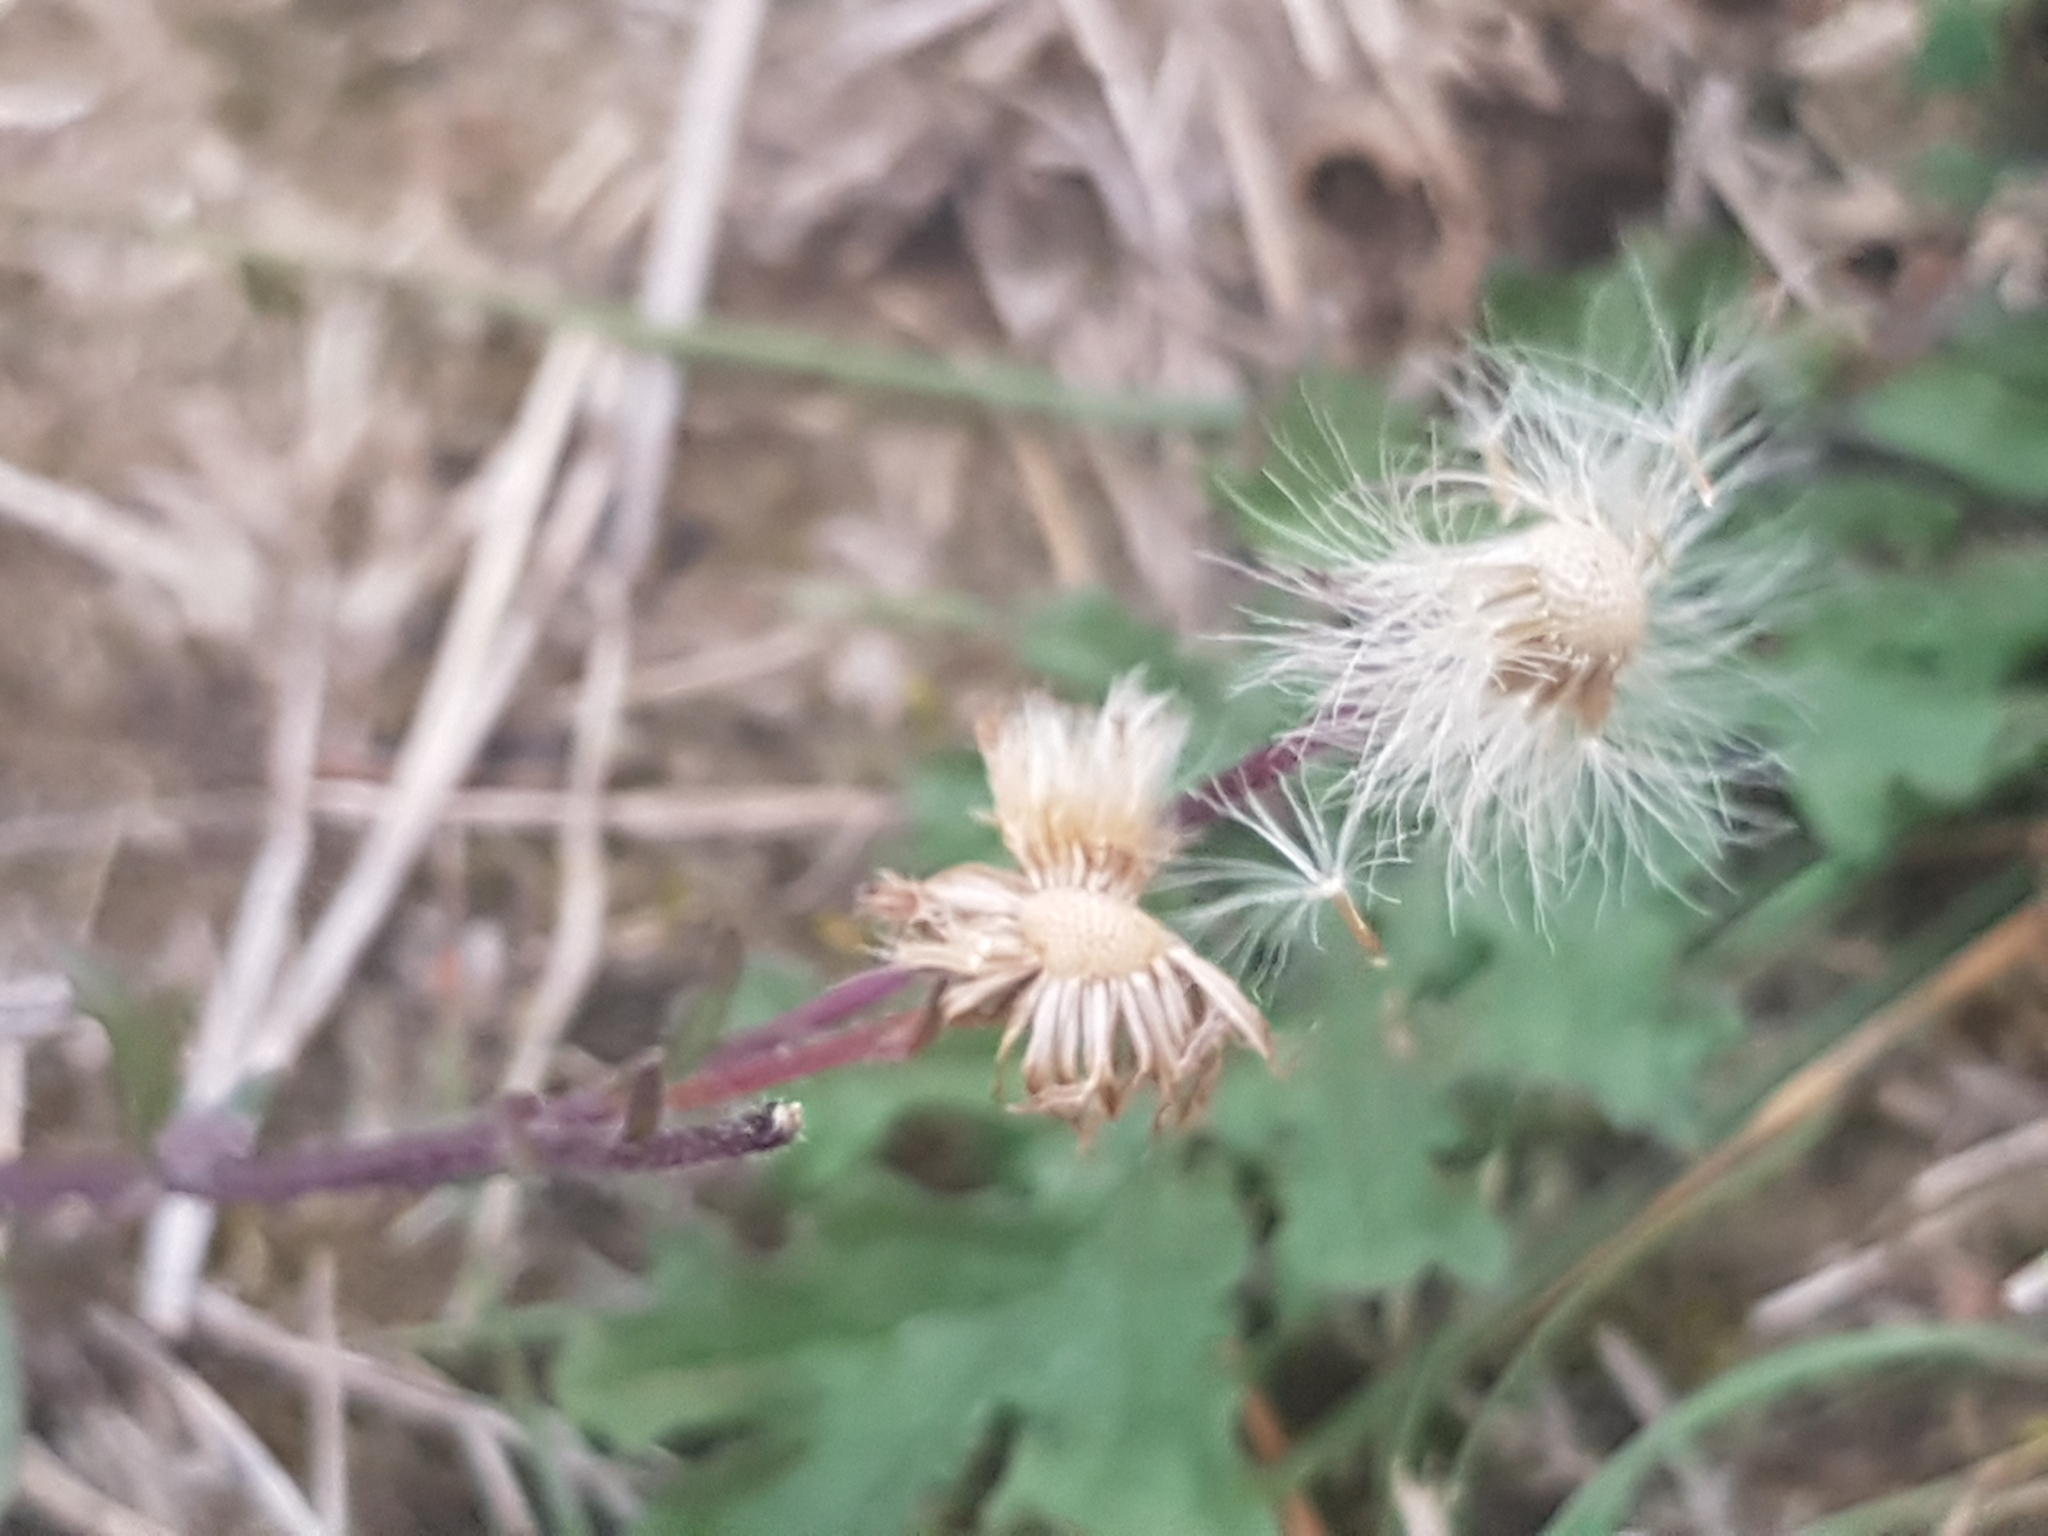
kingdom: Plantae
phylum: Tracheophyta
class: Magnoliopsida
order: Asterales
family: Asteraceae
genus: Erigeron
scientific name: Erigeron acris
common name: Blue fleabane
